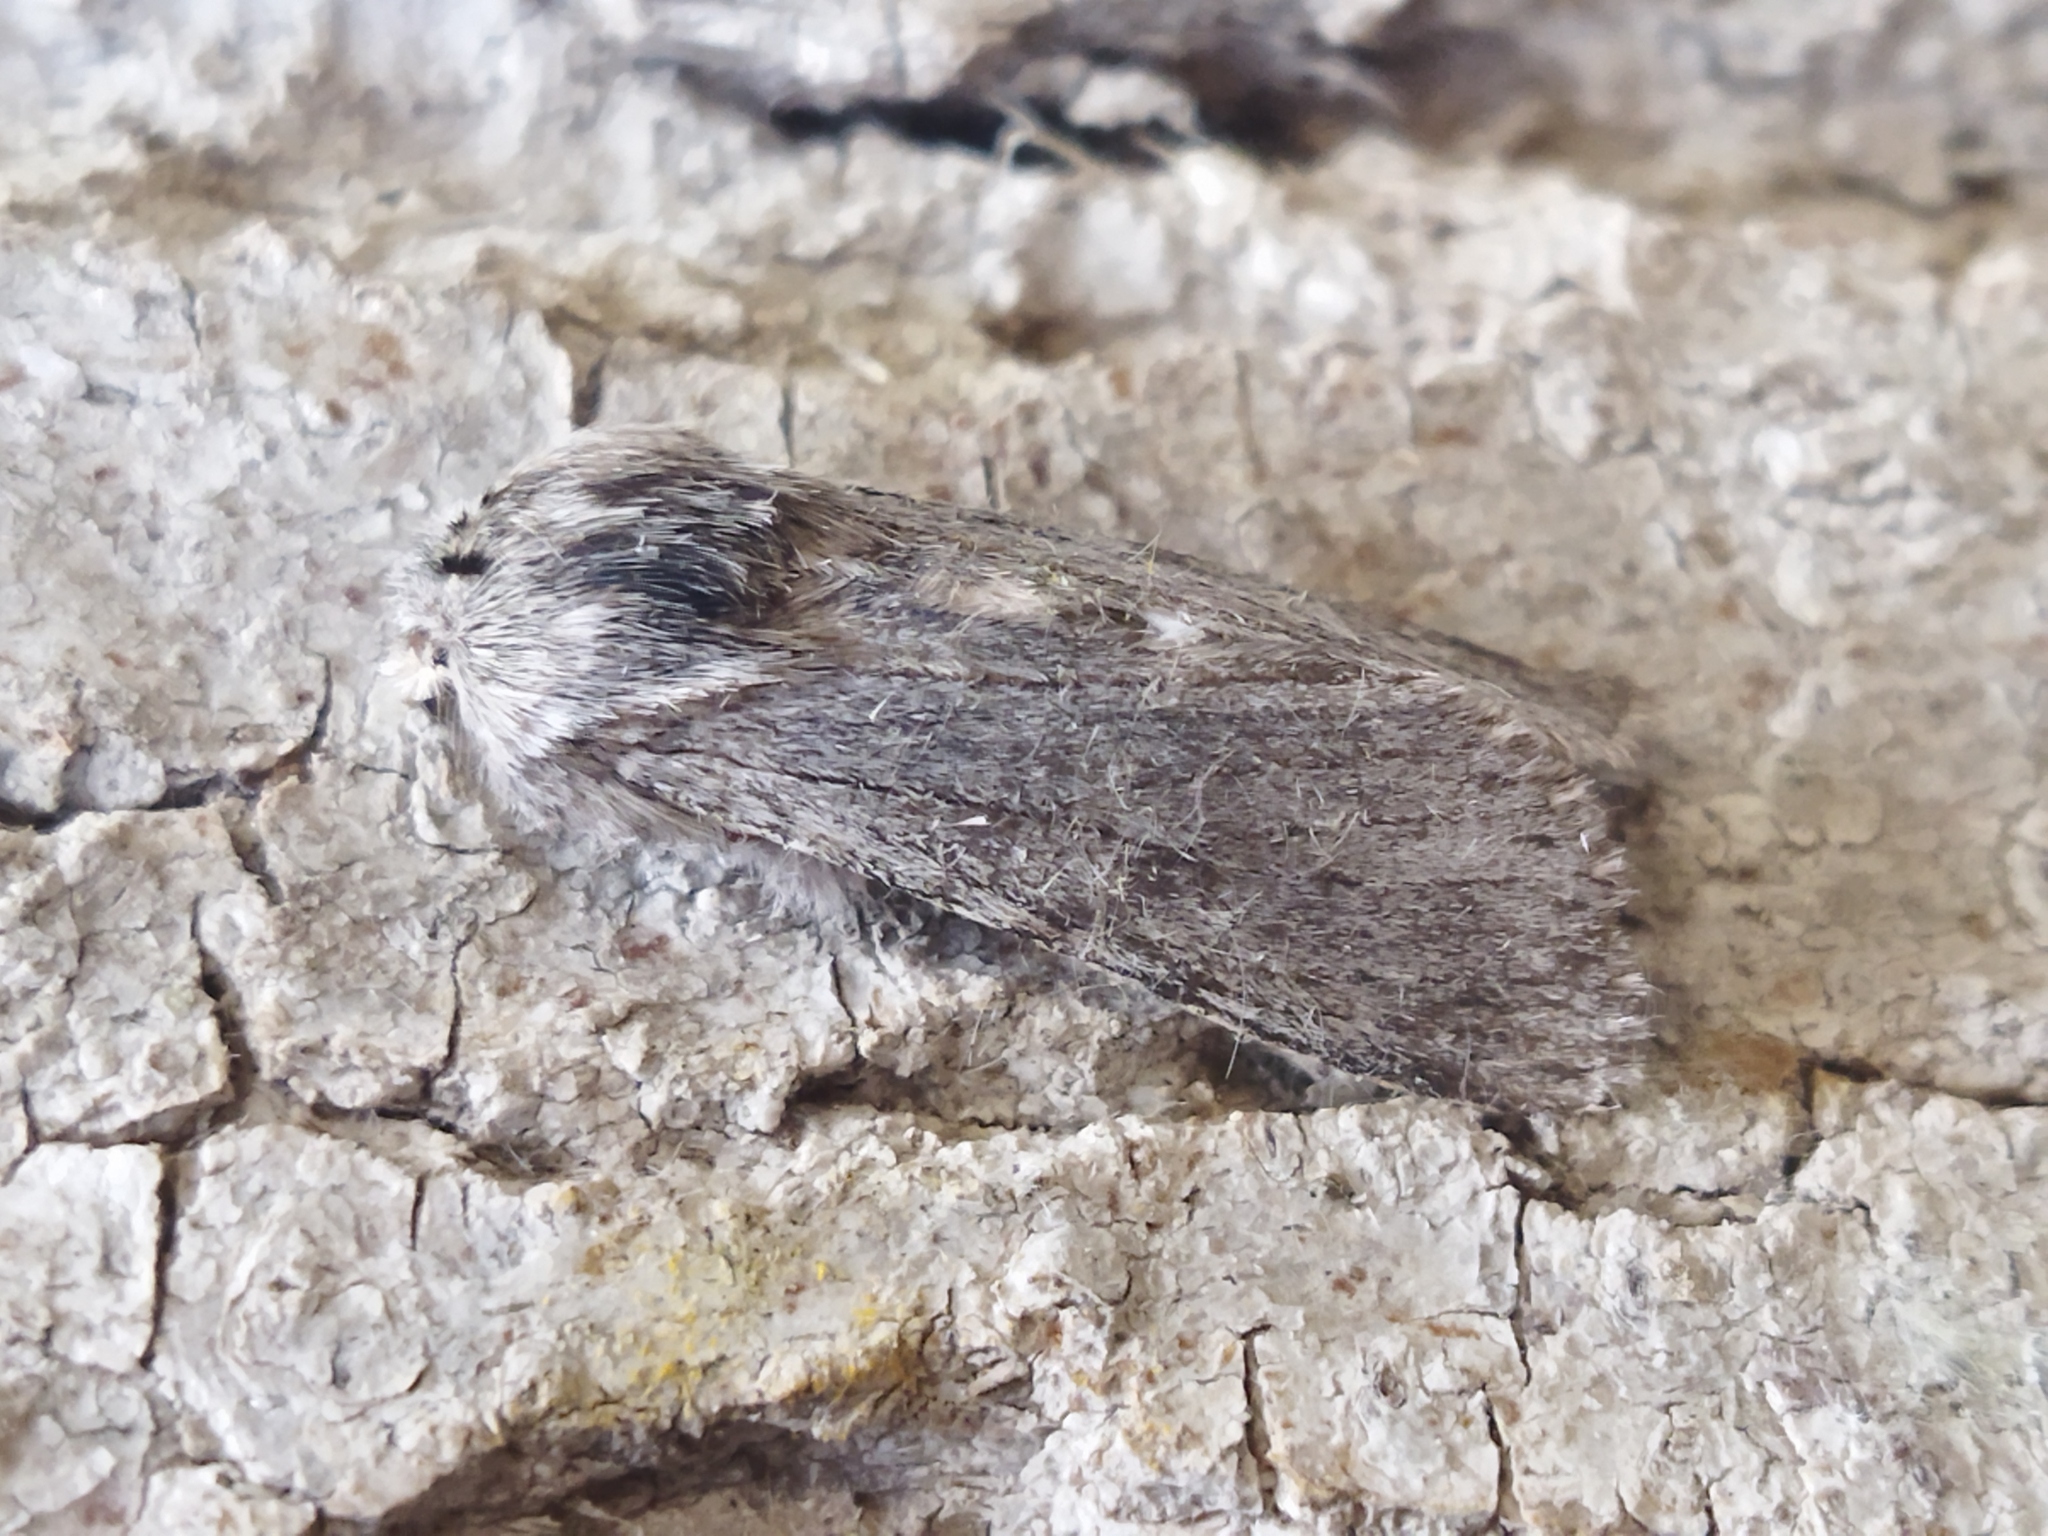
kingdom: Animalia
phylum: Arthropoda
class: Insecta
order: Lepidoptera
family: Notodontidae
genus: Dicranura
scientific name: Dicranura ulmi
